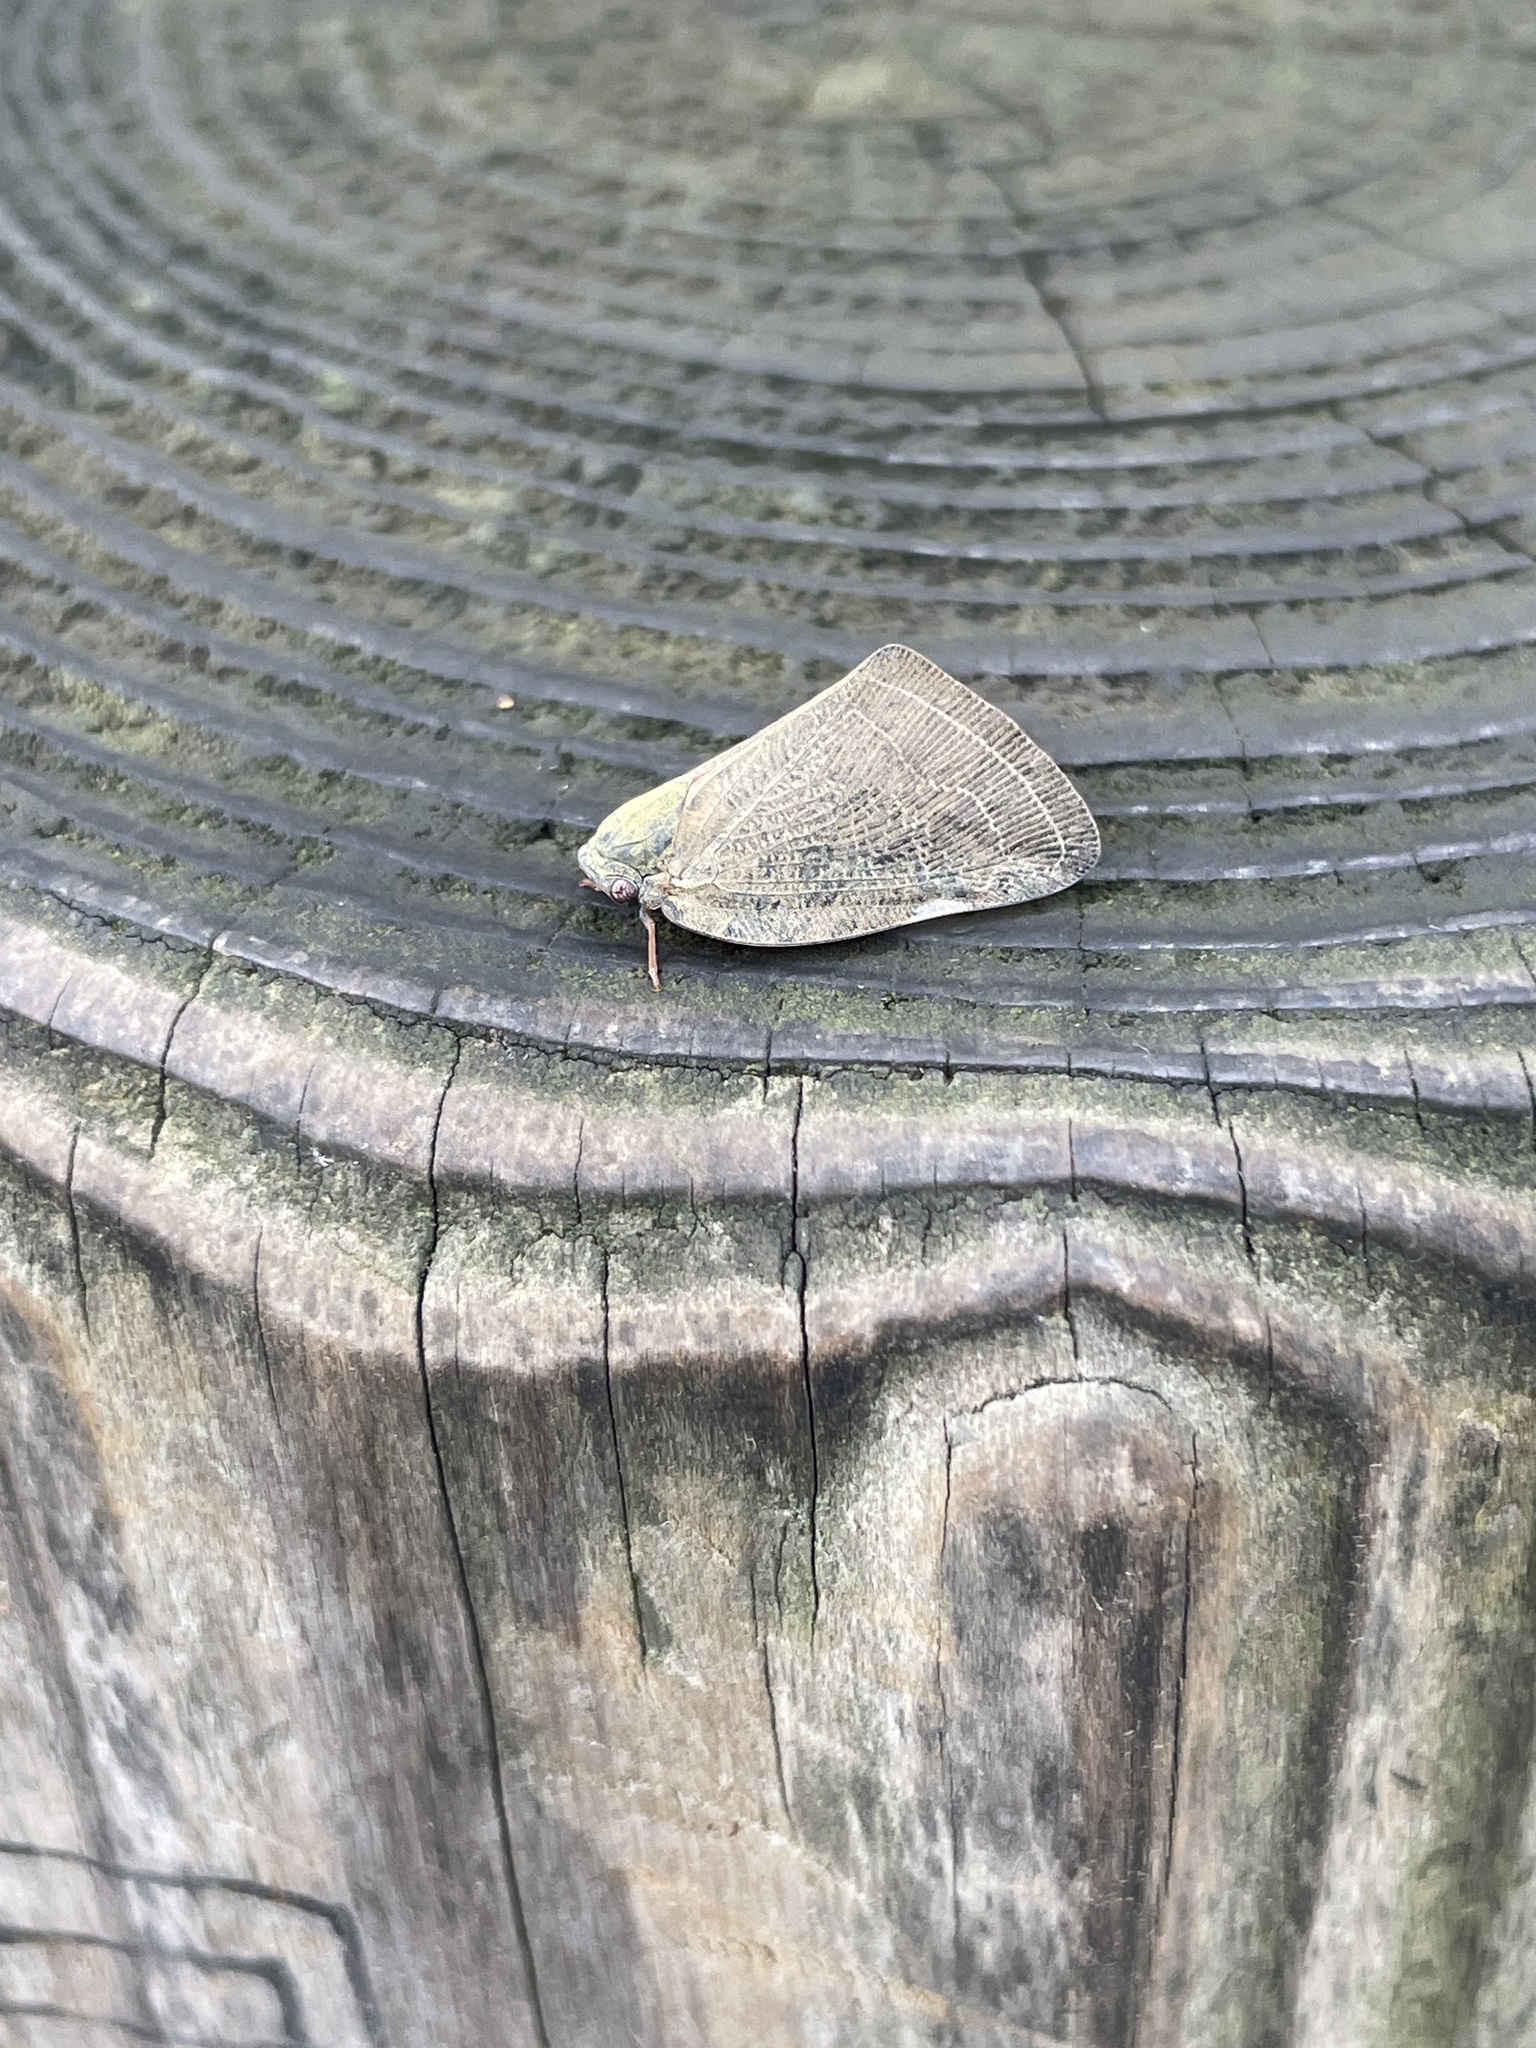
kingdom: Animalia
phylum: Arthropoda
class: Insecta
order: Hemiptera
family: Ricaniidae
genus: Ricanula
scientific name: Ricanula sublimata
